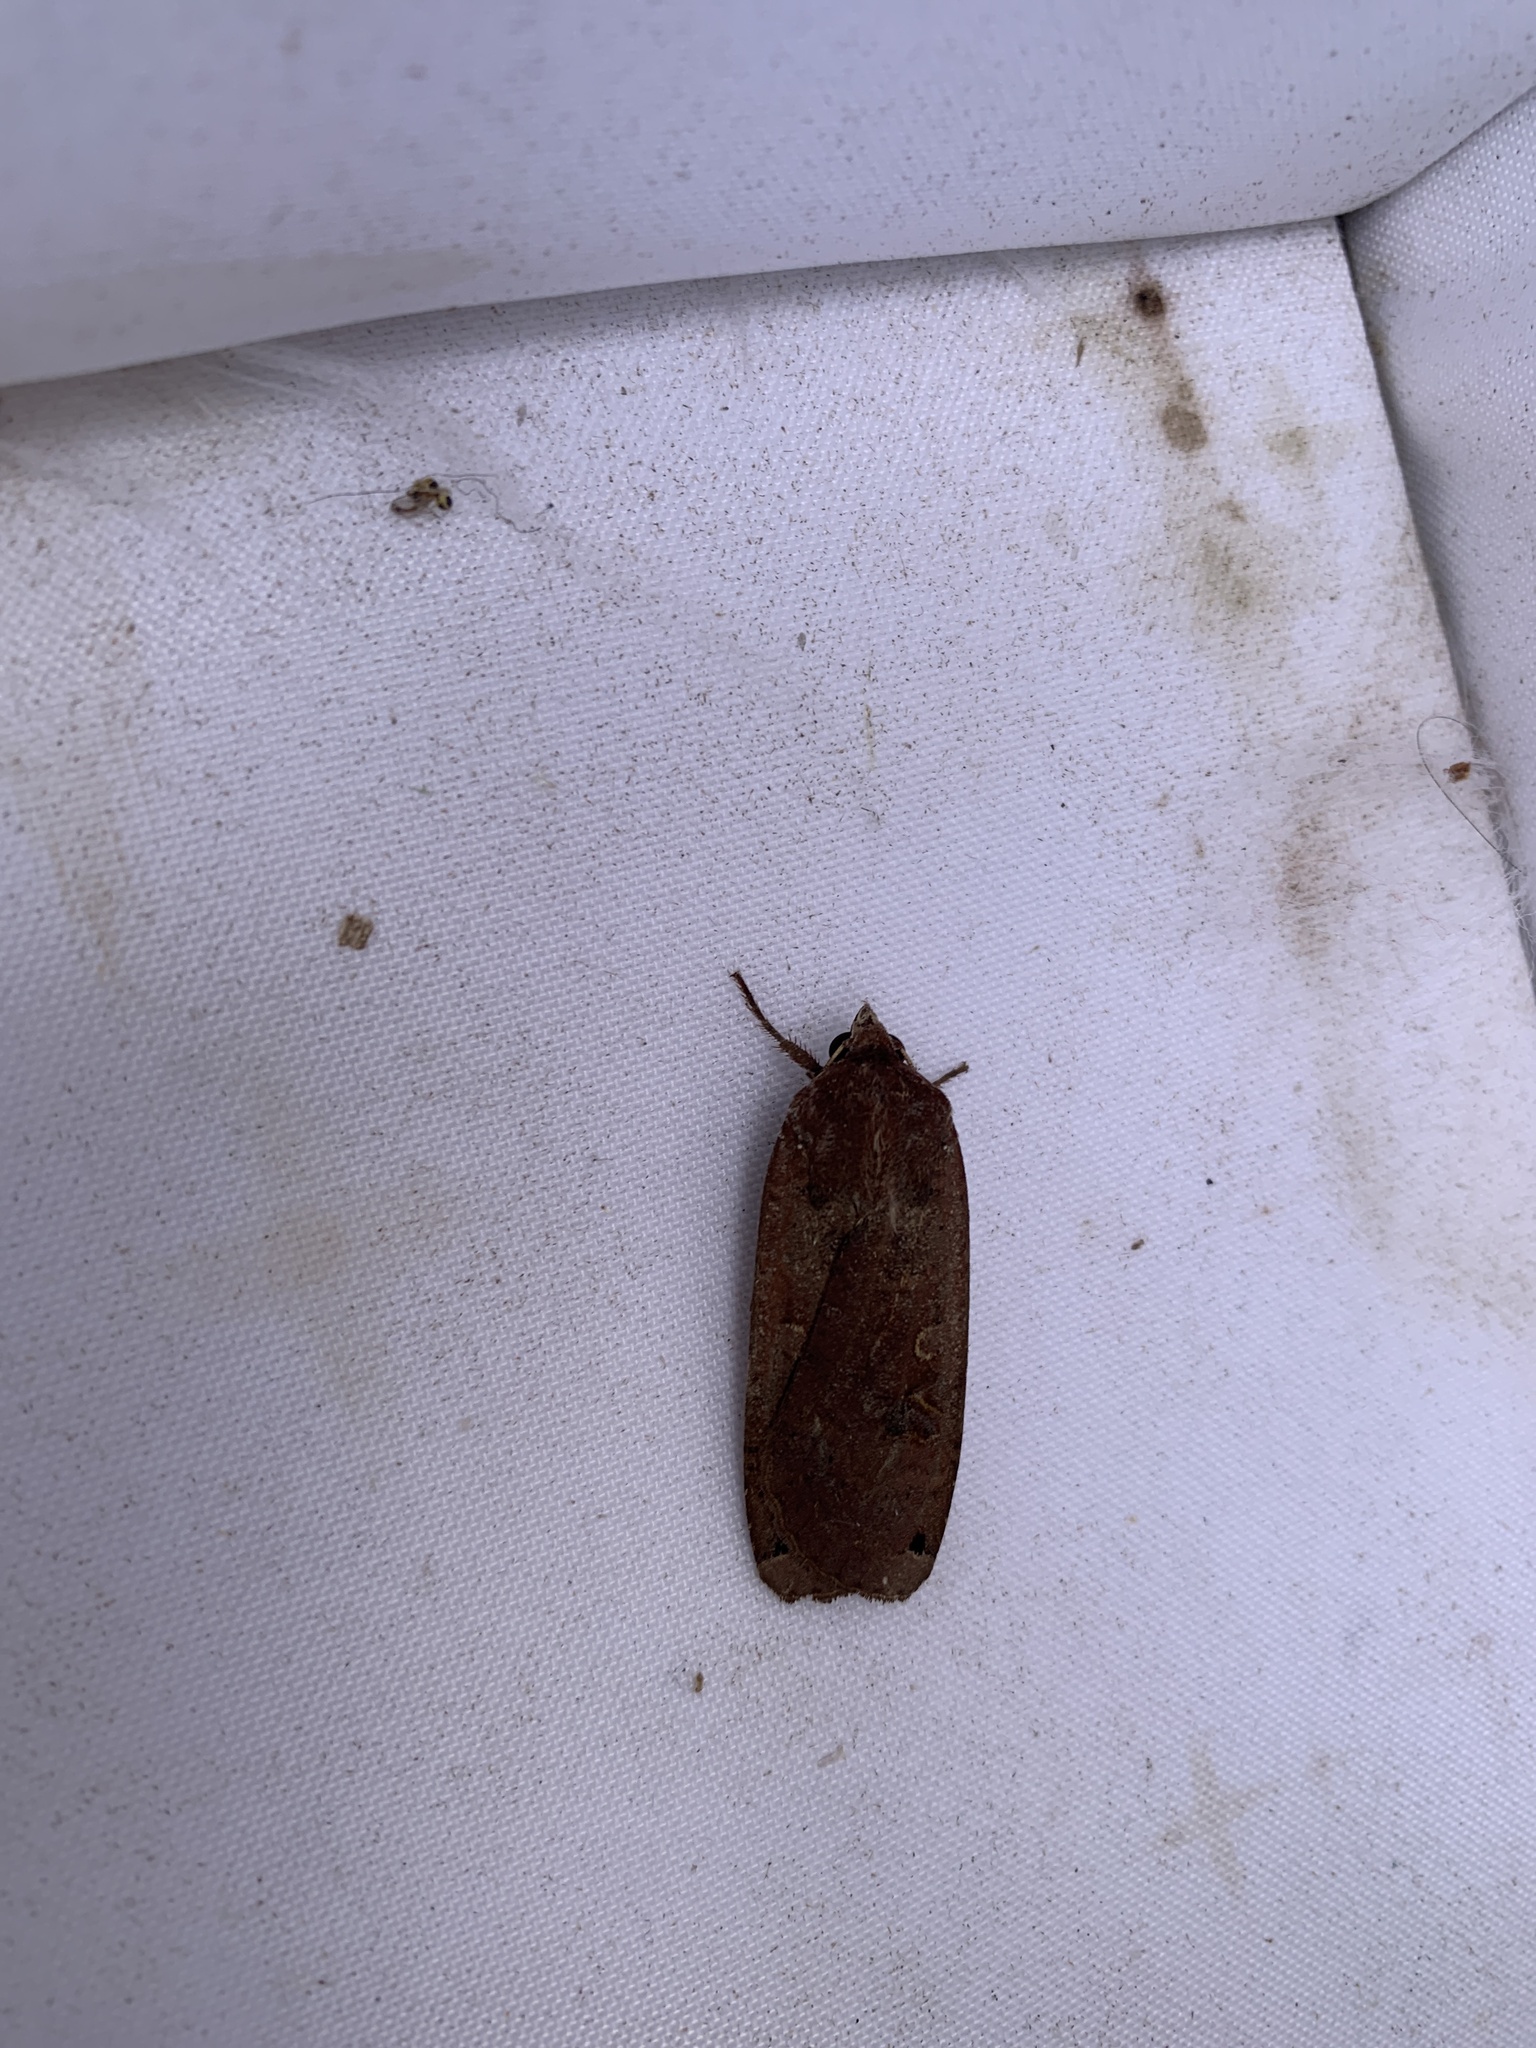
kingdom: Animalia
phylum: Arthropoda
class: Insecta
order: Lepidoptera
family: Noctuidae
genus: Noctua
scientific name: Noctua pronuba
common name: Large yellow underwing
